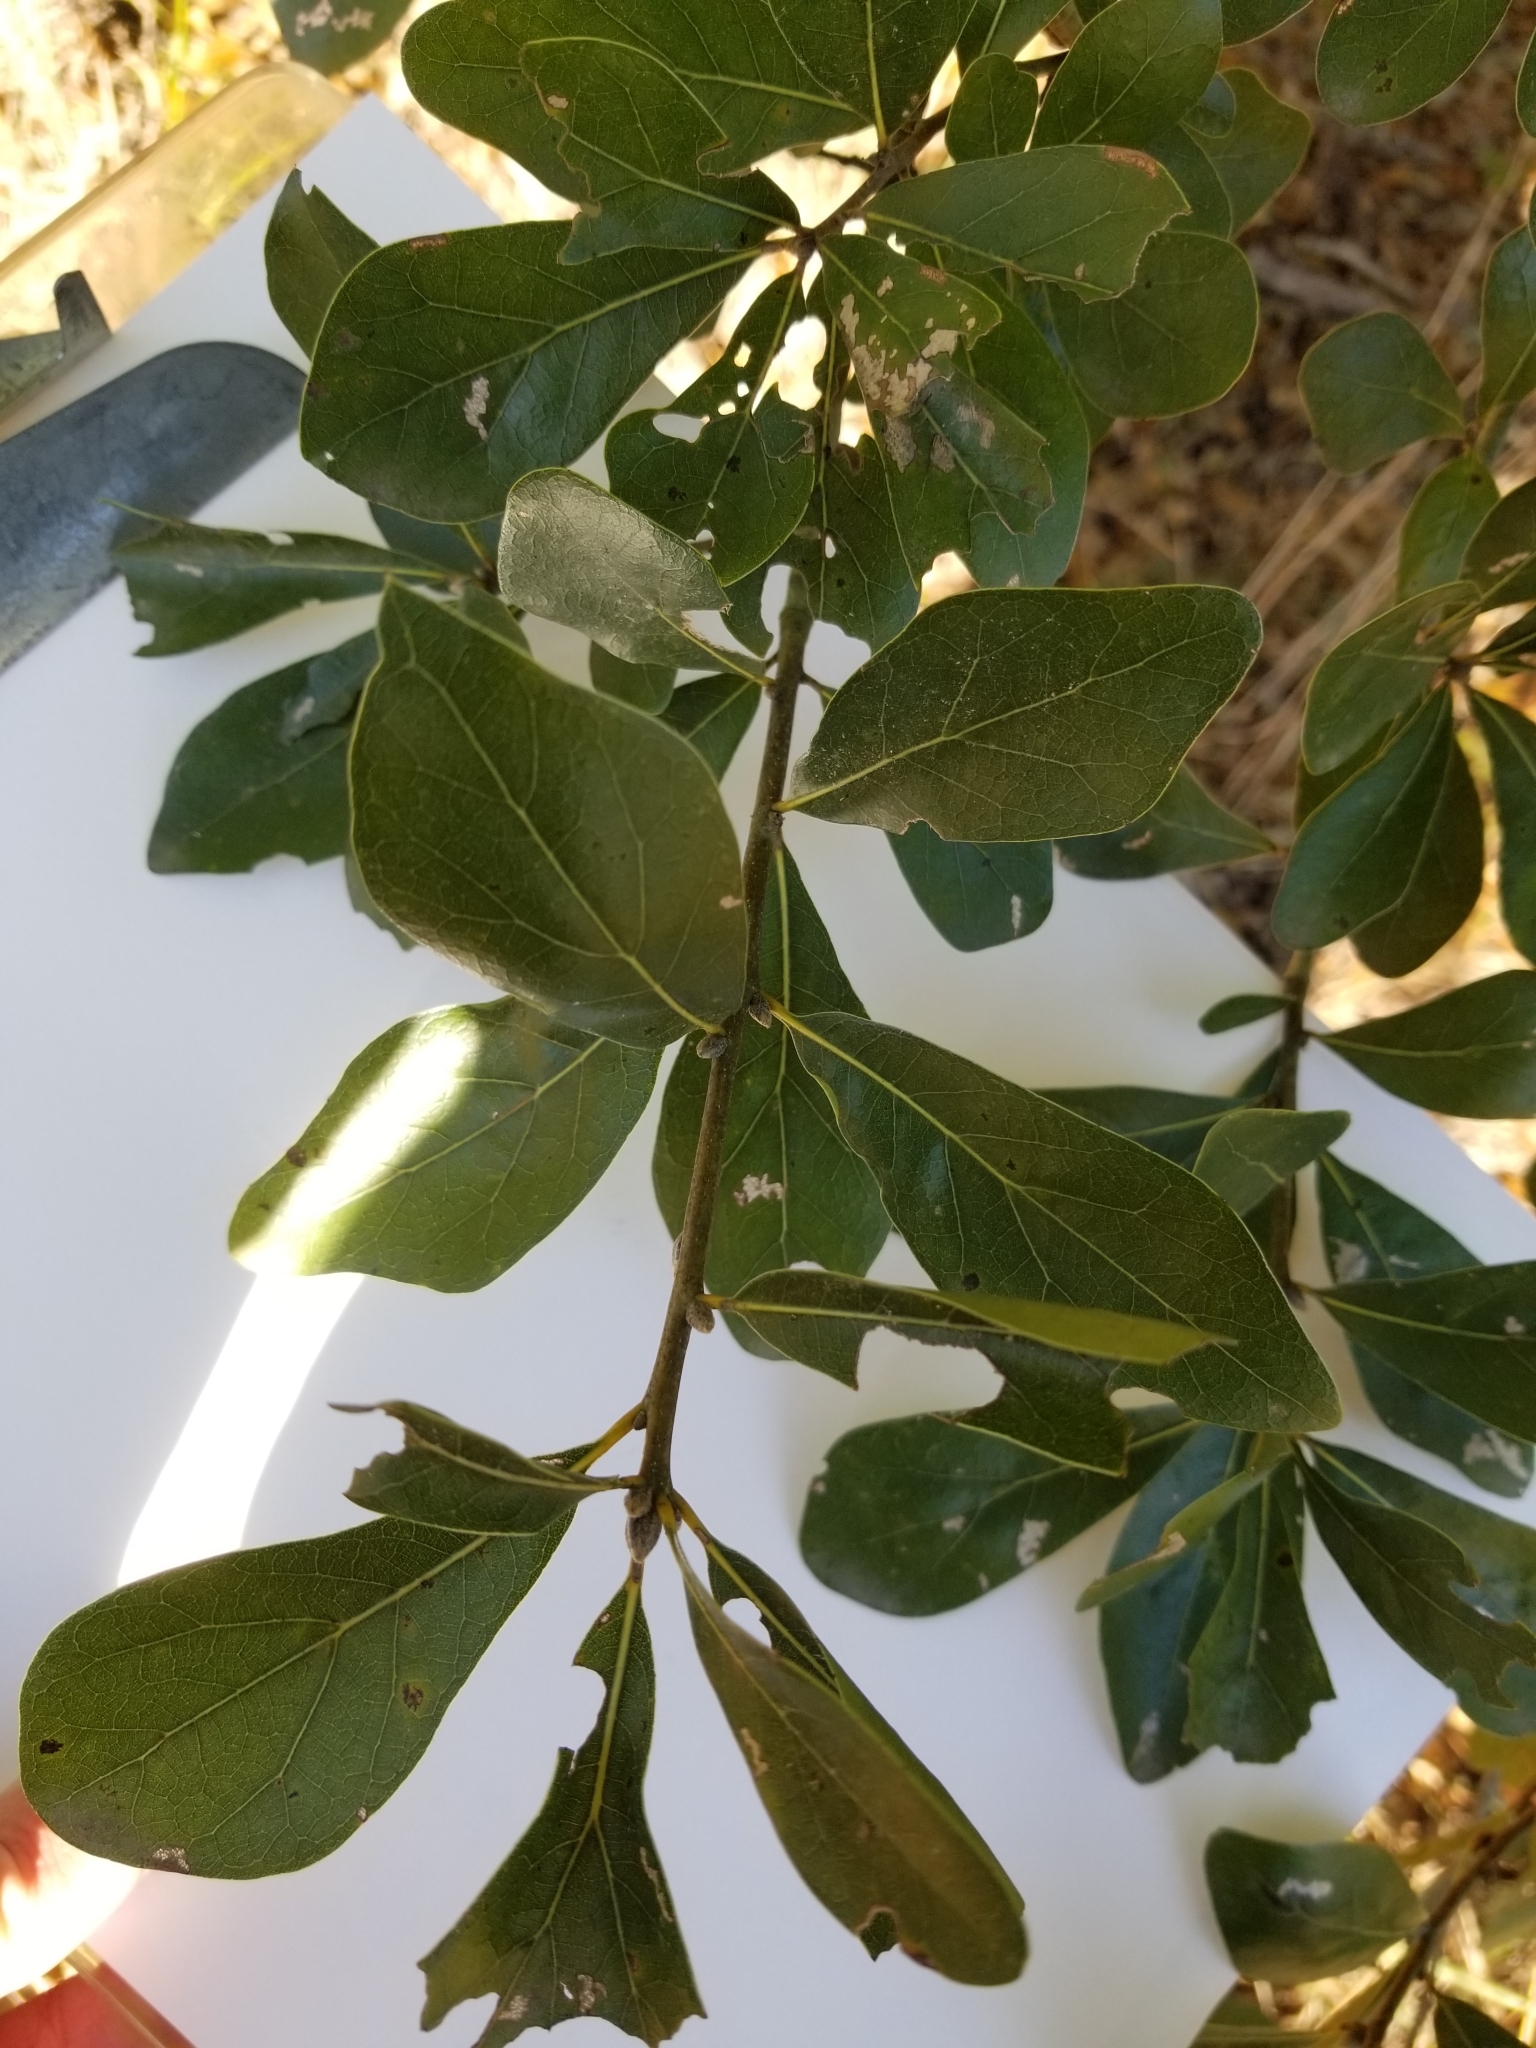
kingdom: Plantae
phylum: Tracheophyta
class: Magnoliopsida
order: Fagales
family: Fagaceae
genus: Quercus
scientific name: Quercus nigra
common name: Water oak
